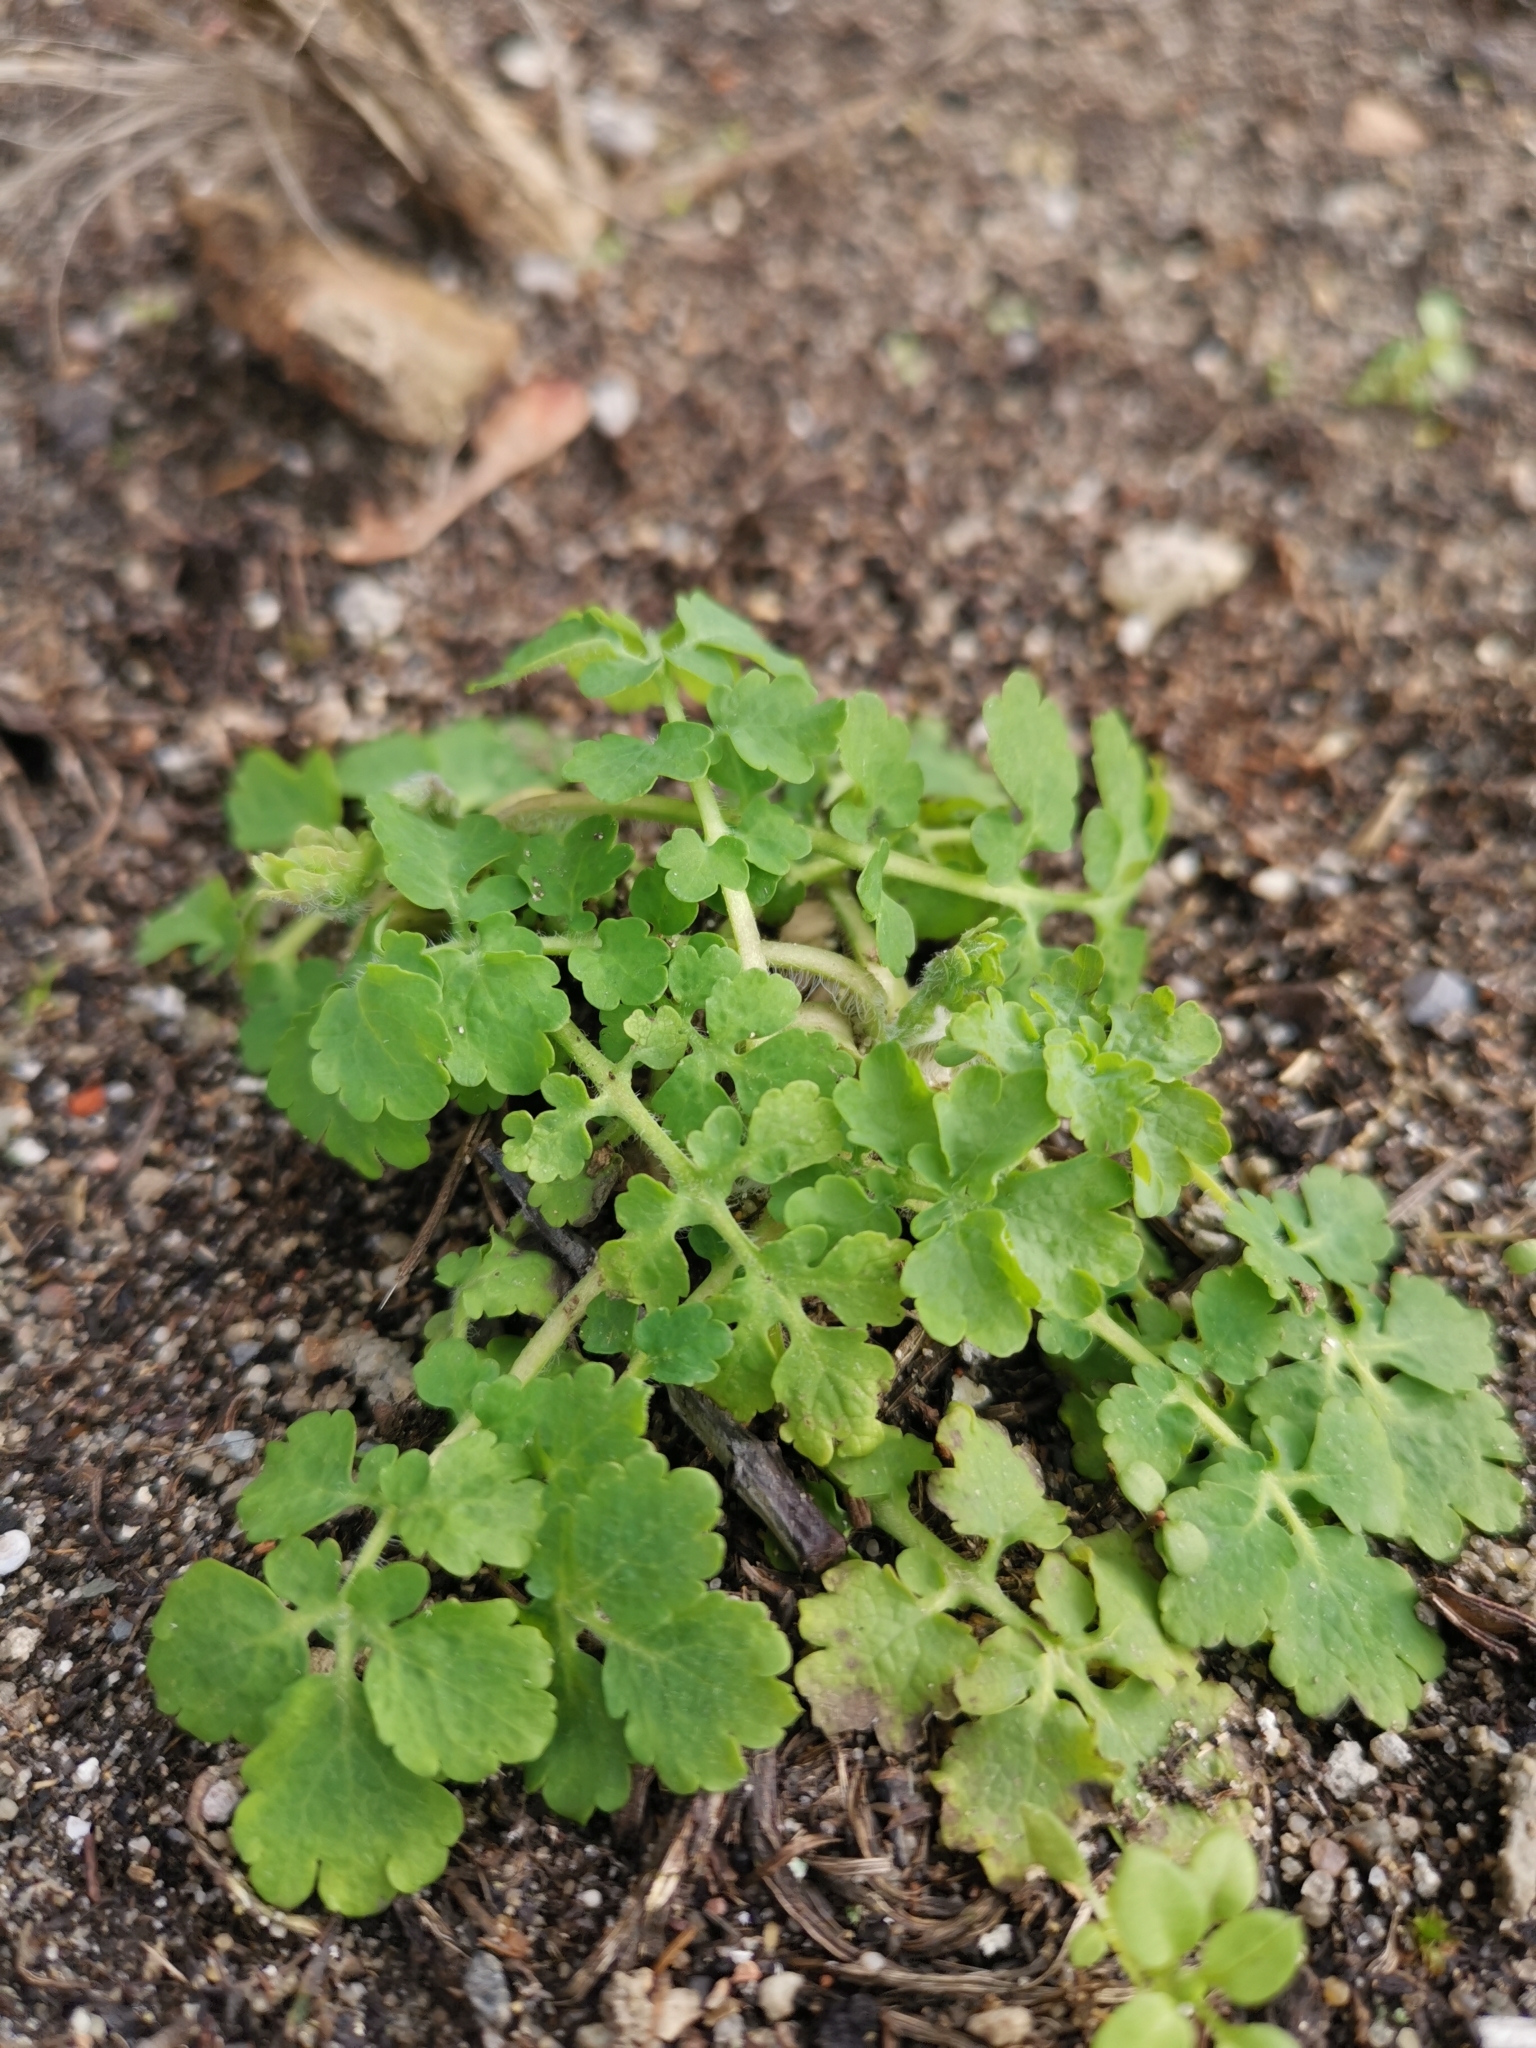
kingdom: Plantae
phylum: Tracheophyta
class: Magnoliopsida
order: Ranunculales
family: Papaveraceae
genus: Chelidonium
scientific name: Chelidonium majus
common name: Greater celandine
